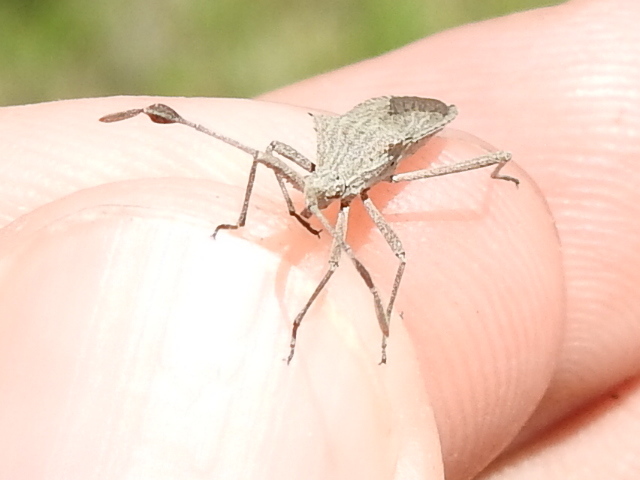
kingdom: Animalia
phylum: Arthropoda
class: Insecta
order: Hemiptera
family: Coreidae
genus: Chariesterus
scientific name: Chariesterus antennator
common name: Flat horned coreid
